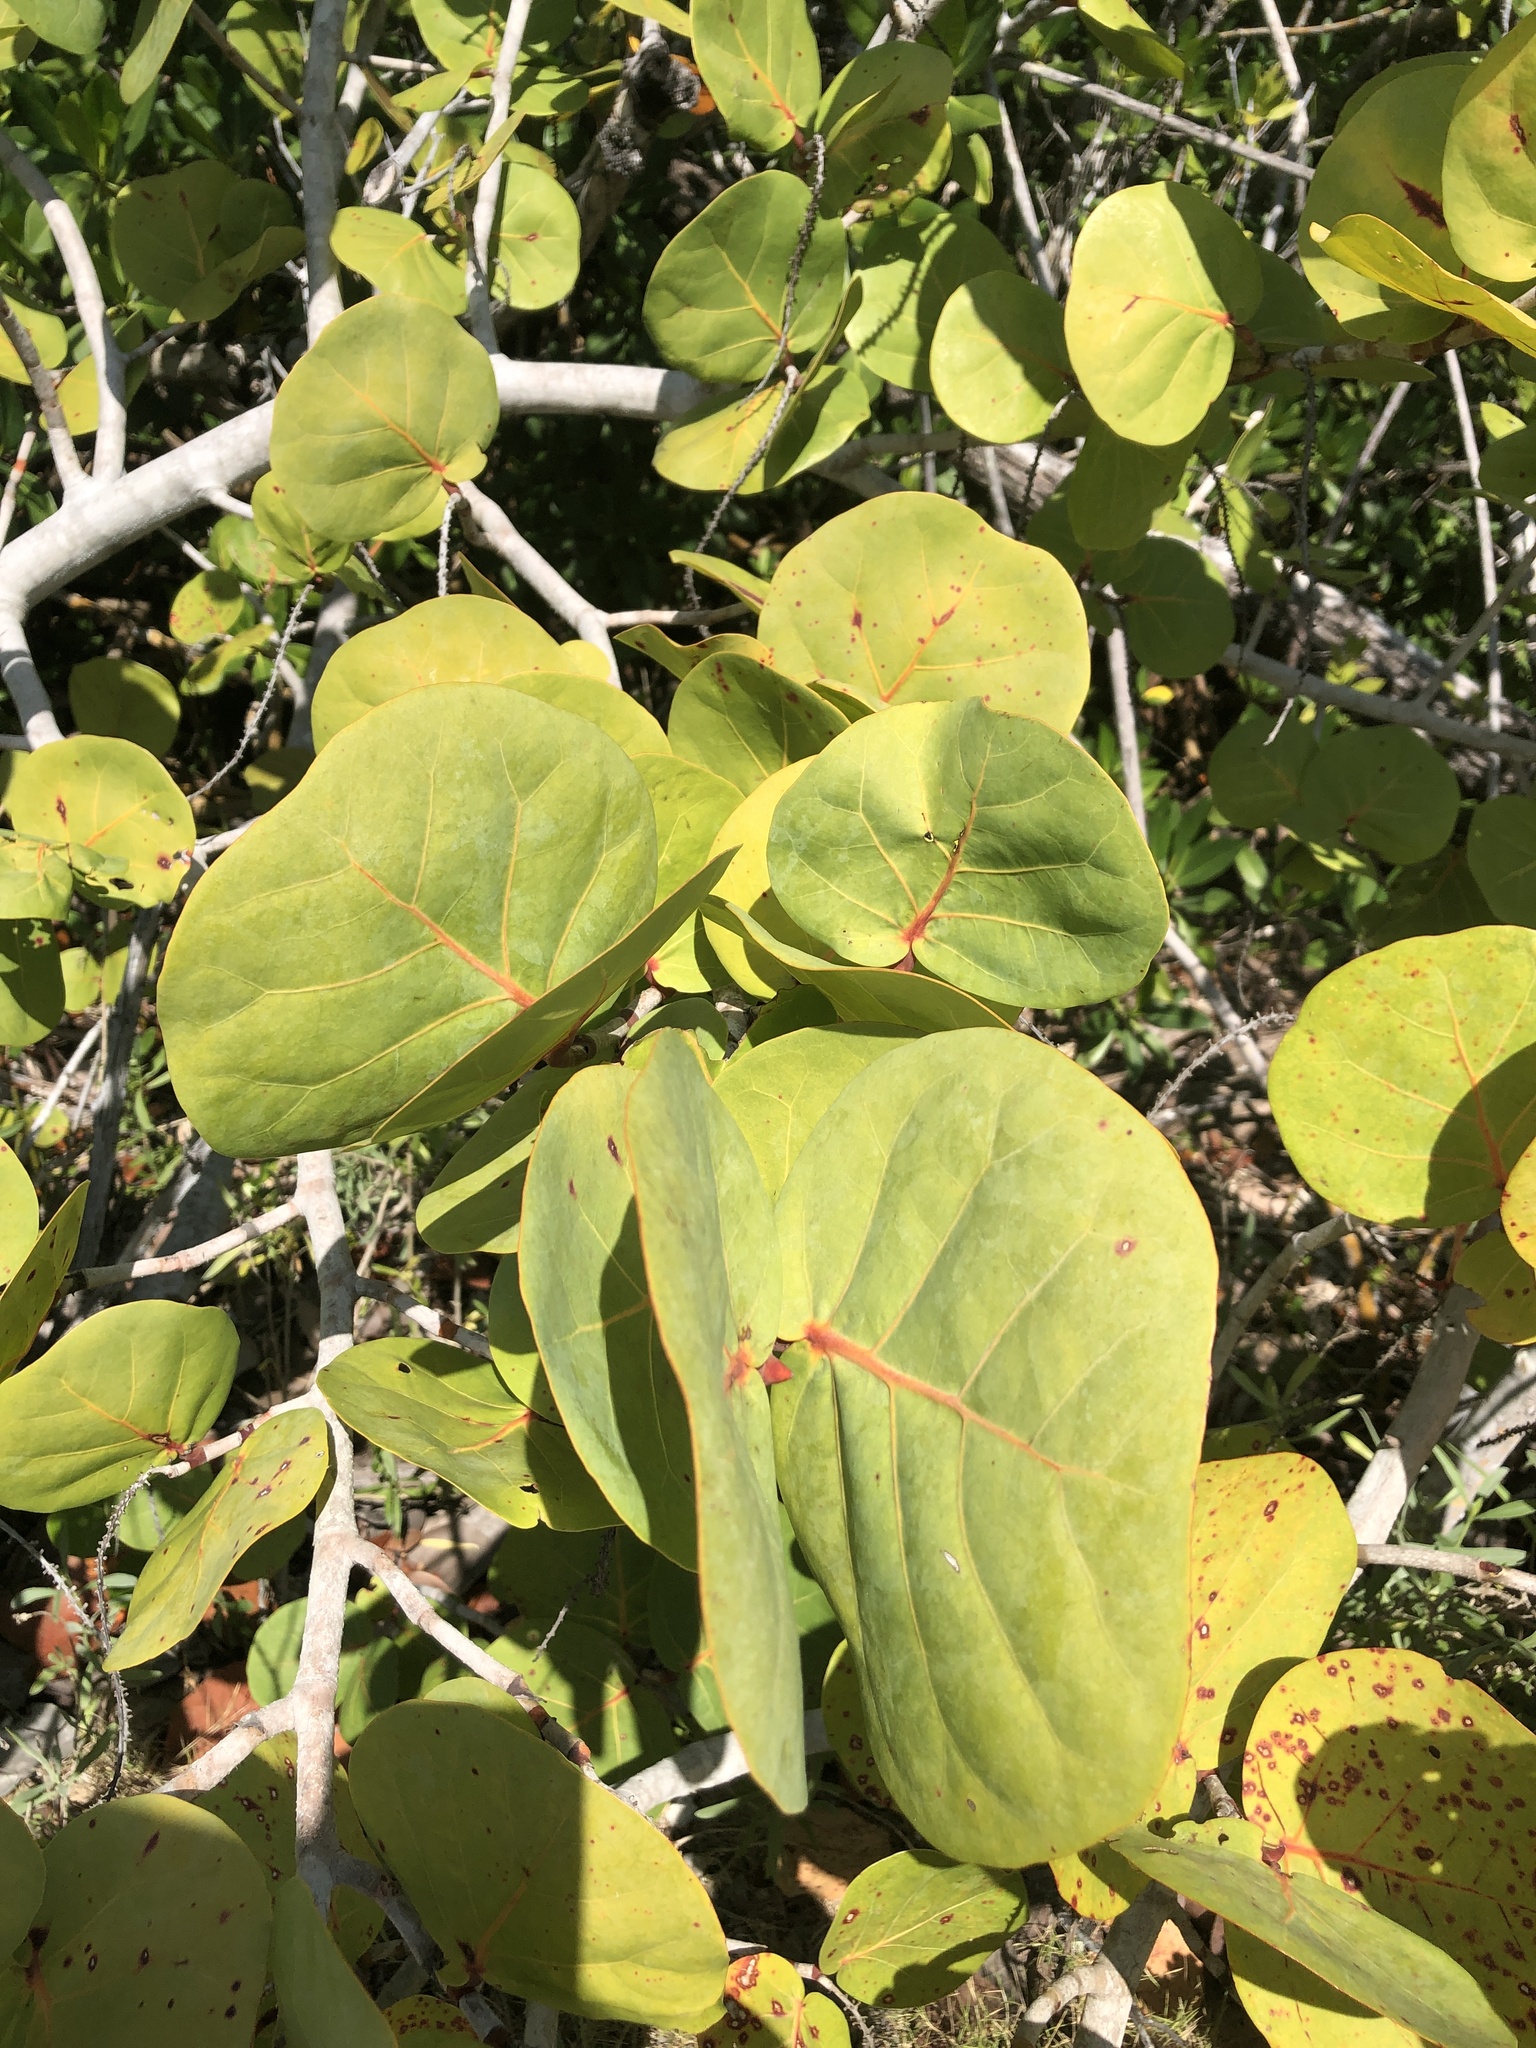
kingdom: Plantae
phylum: Tracheophyta
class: Magnoliopsida
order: Caryophyllales
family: Polygonaceae
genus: Coccoloba
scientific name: Coccoloba uvifera
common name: Seagrape
